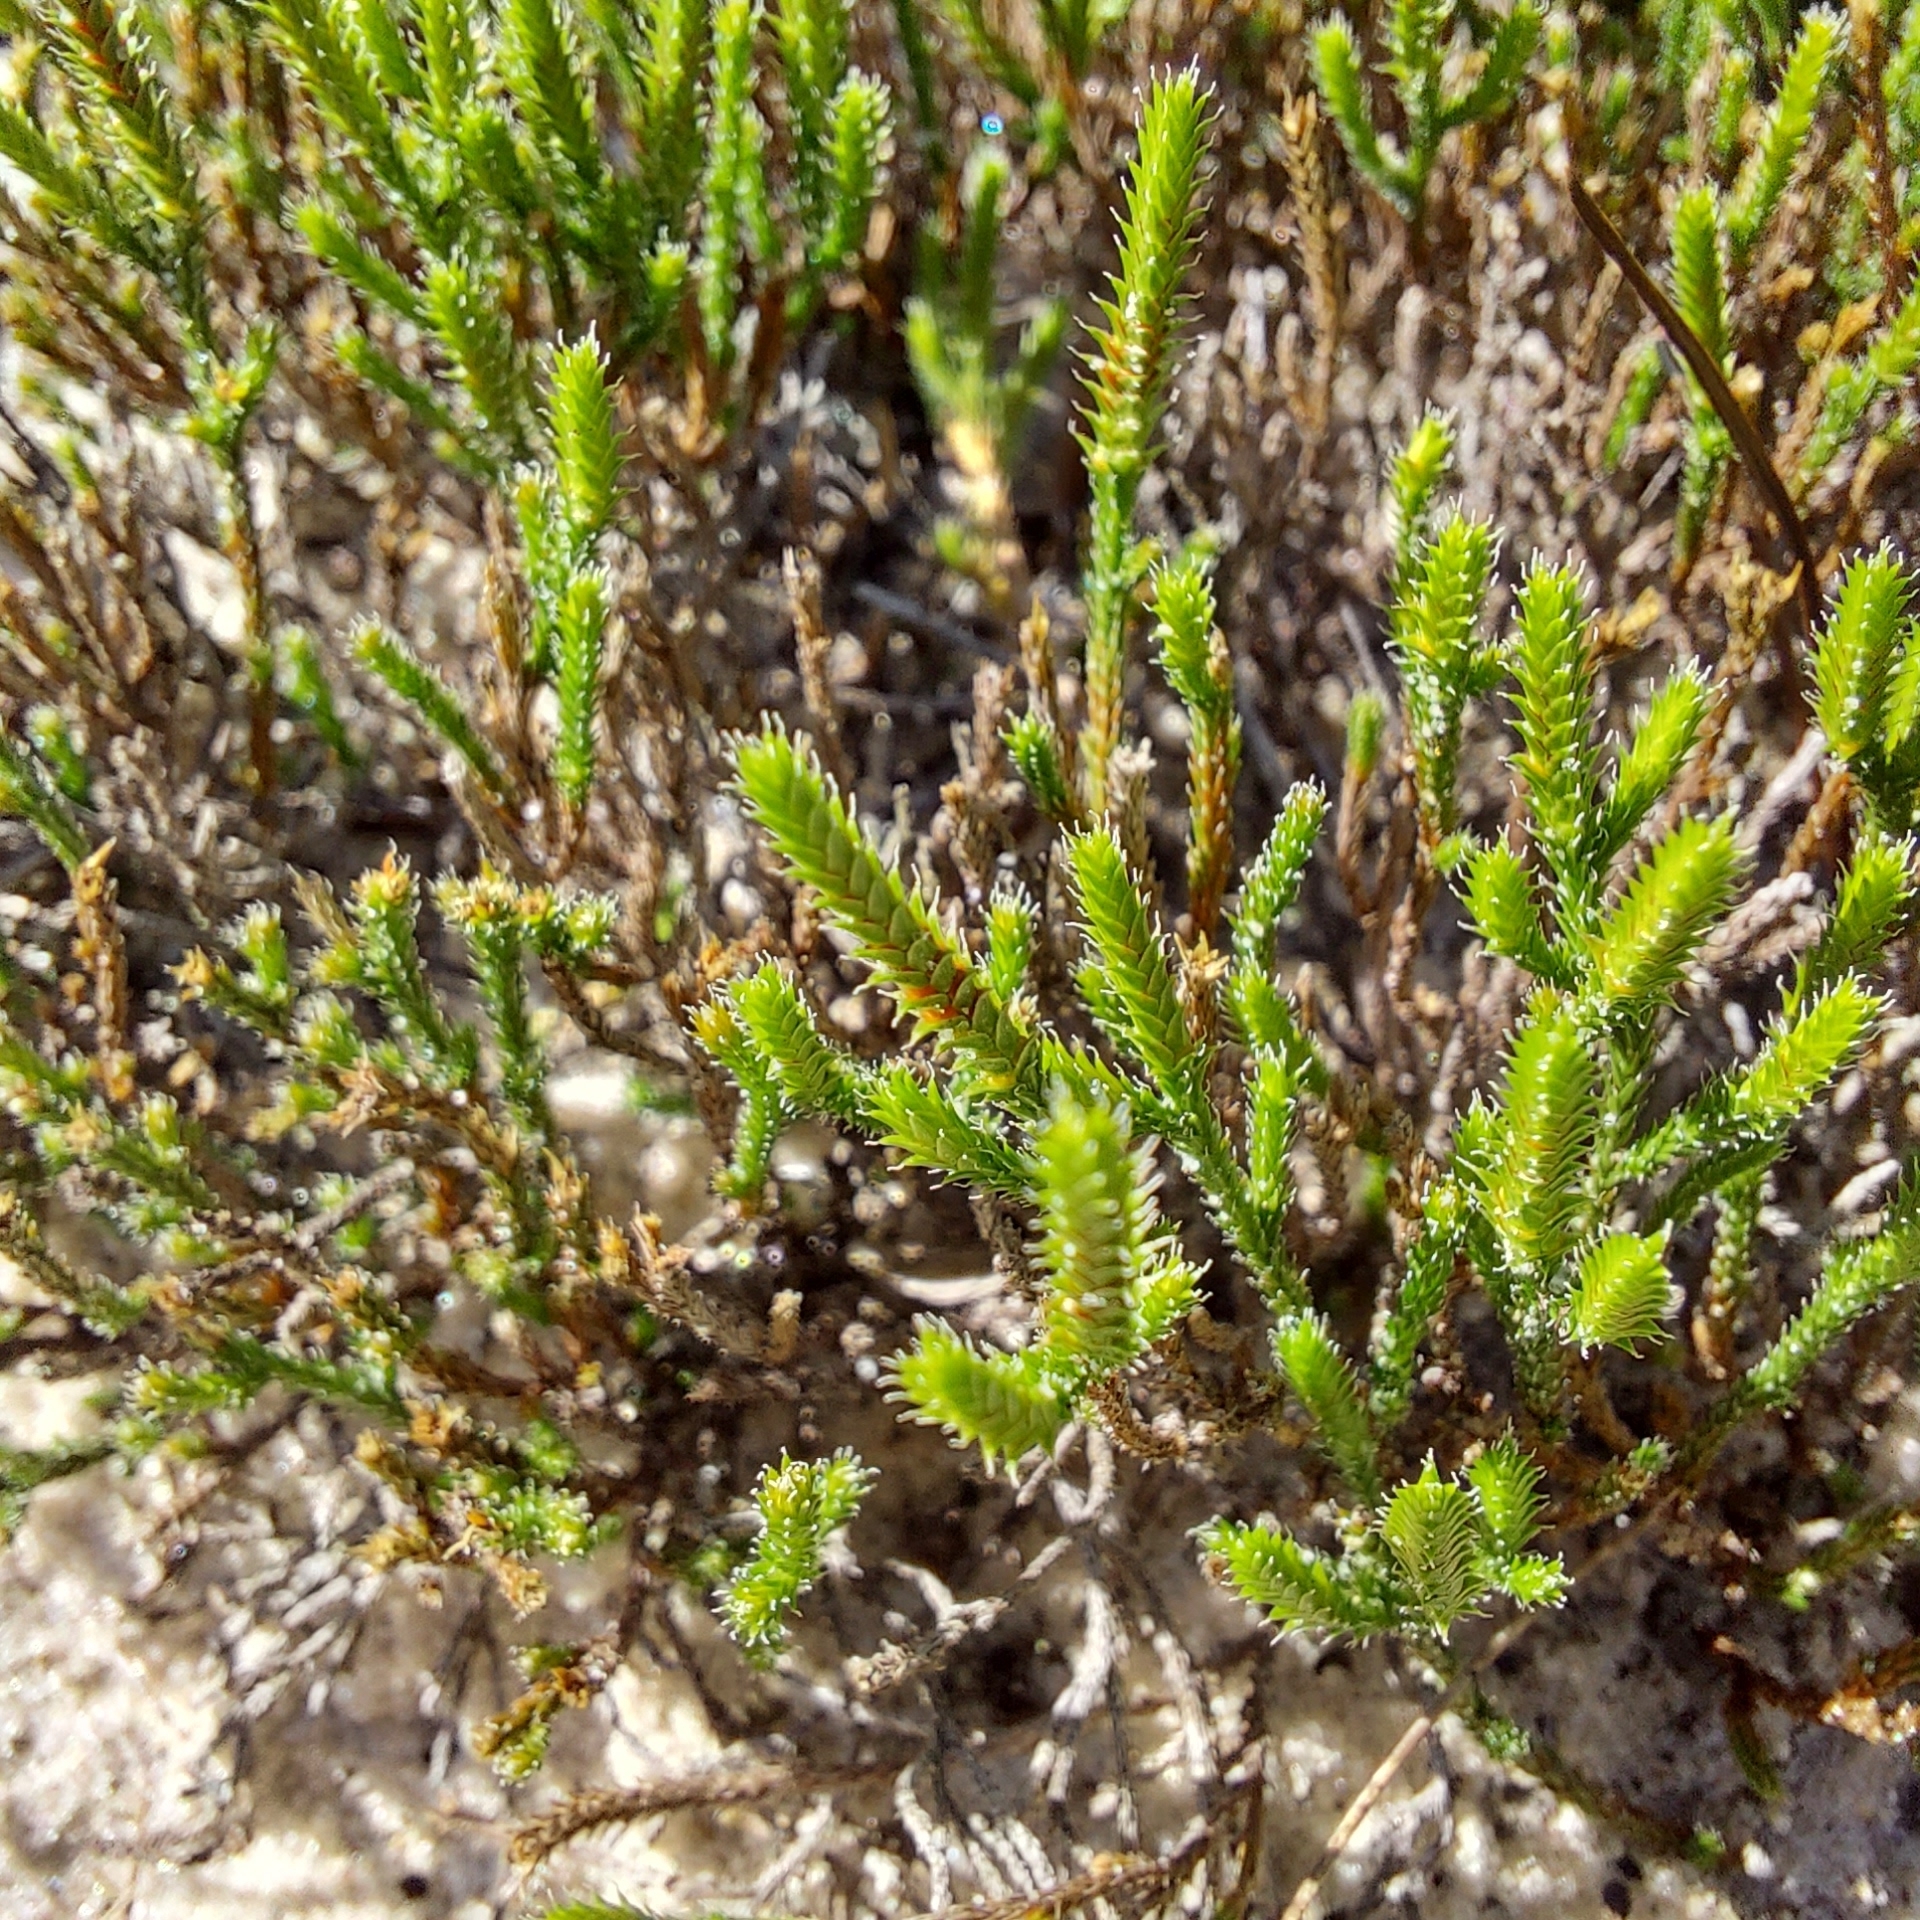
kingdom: Plantae
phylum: Tracheophyta
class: Lycopodiopsida
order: Selaginellales
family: Selaginellaceae
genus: Selaginella
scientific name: Selaginella arenicola
